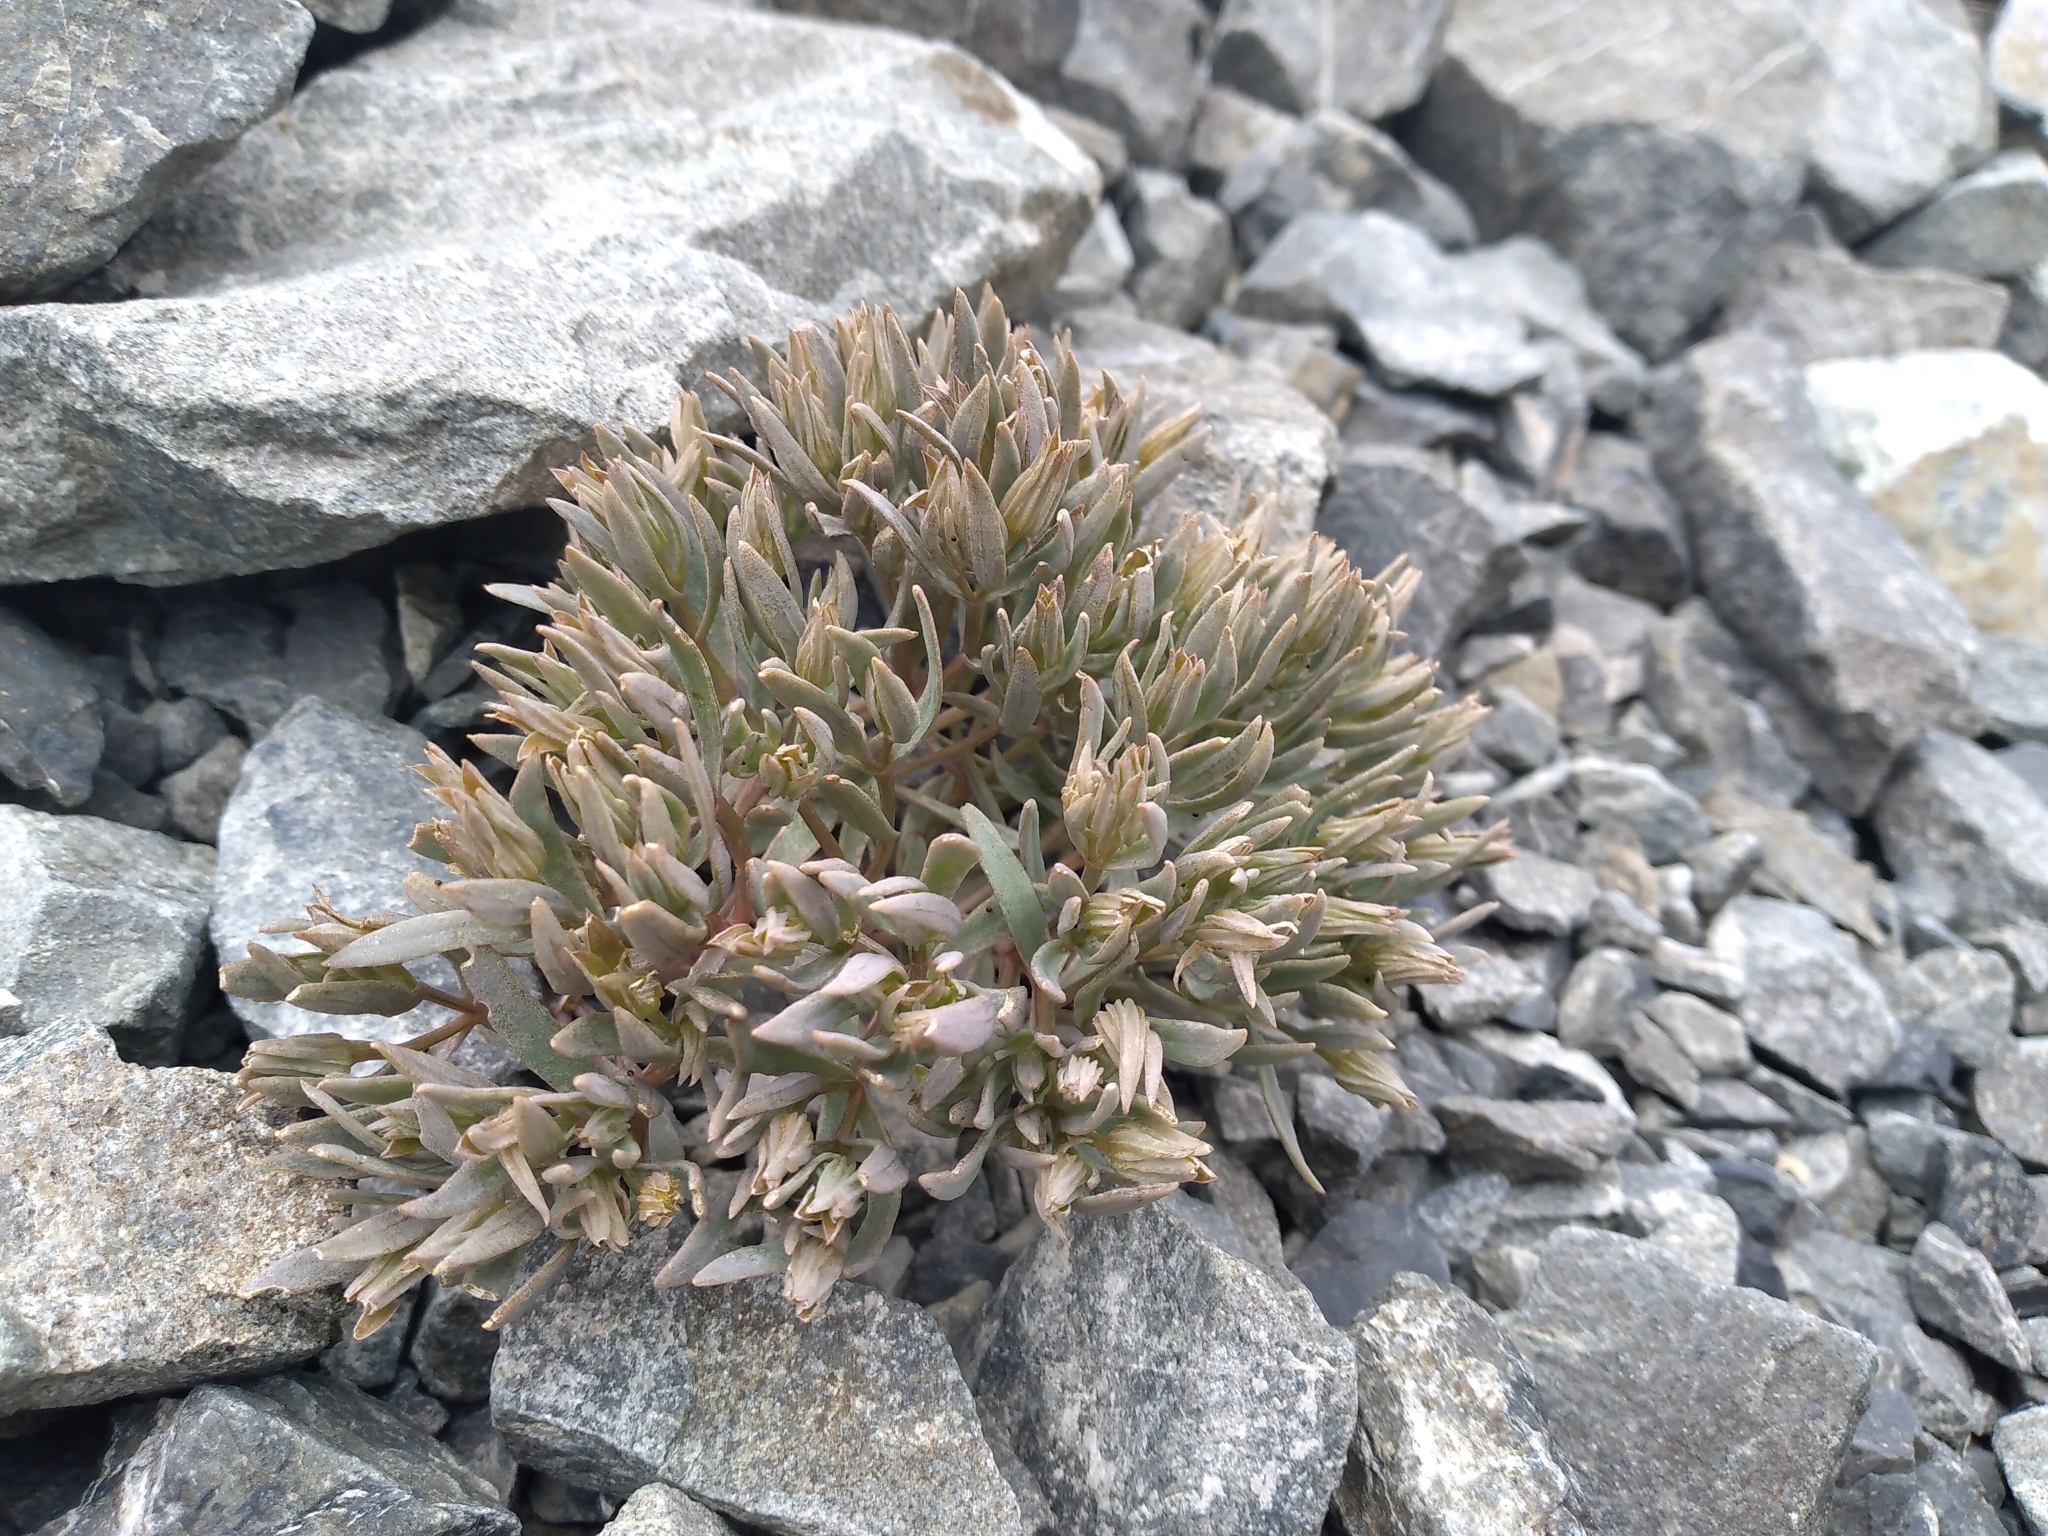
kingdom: Plantae
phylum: Tracheophyta
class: Magnoliopsida
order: Caryophyllales
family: Caryophyllaceae
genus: Stellaria
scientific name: Stellaria roughii
